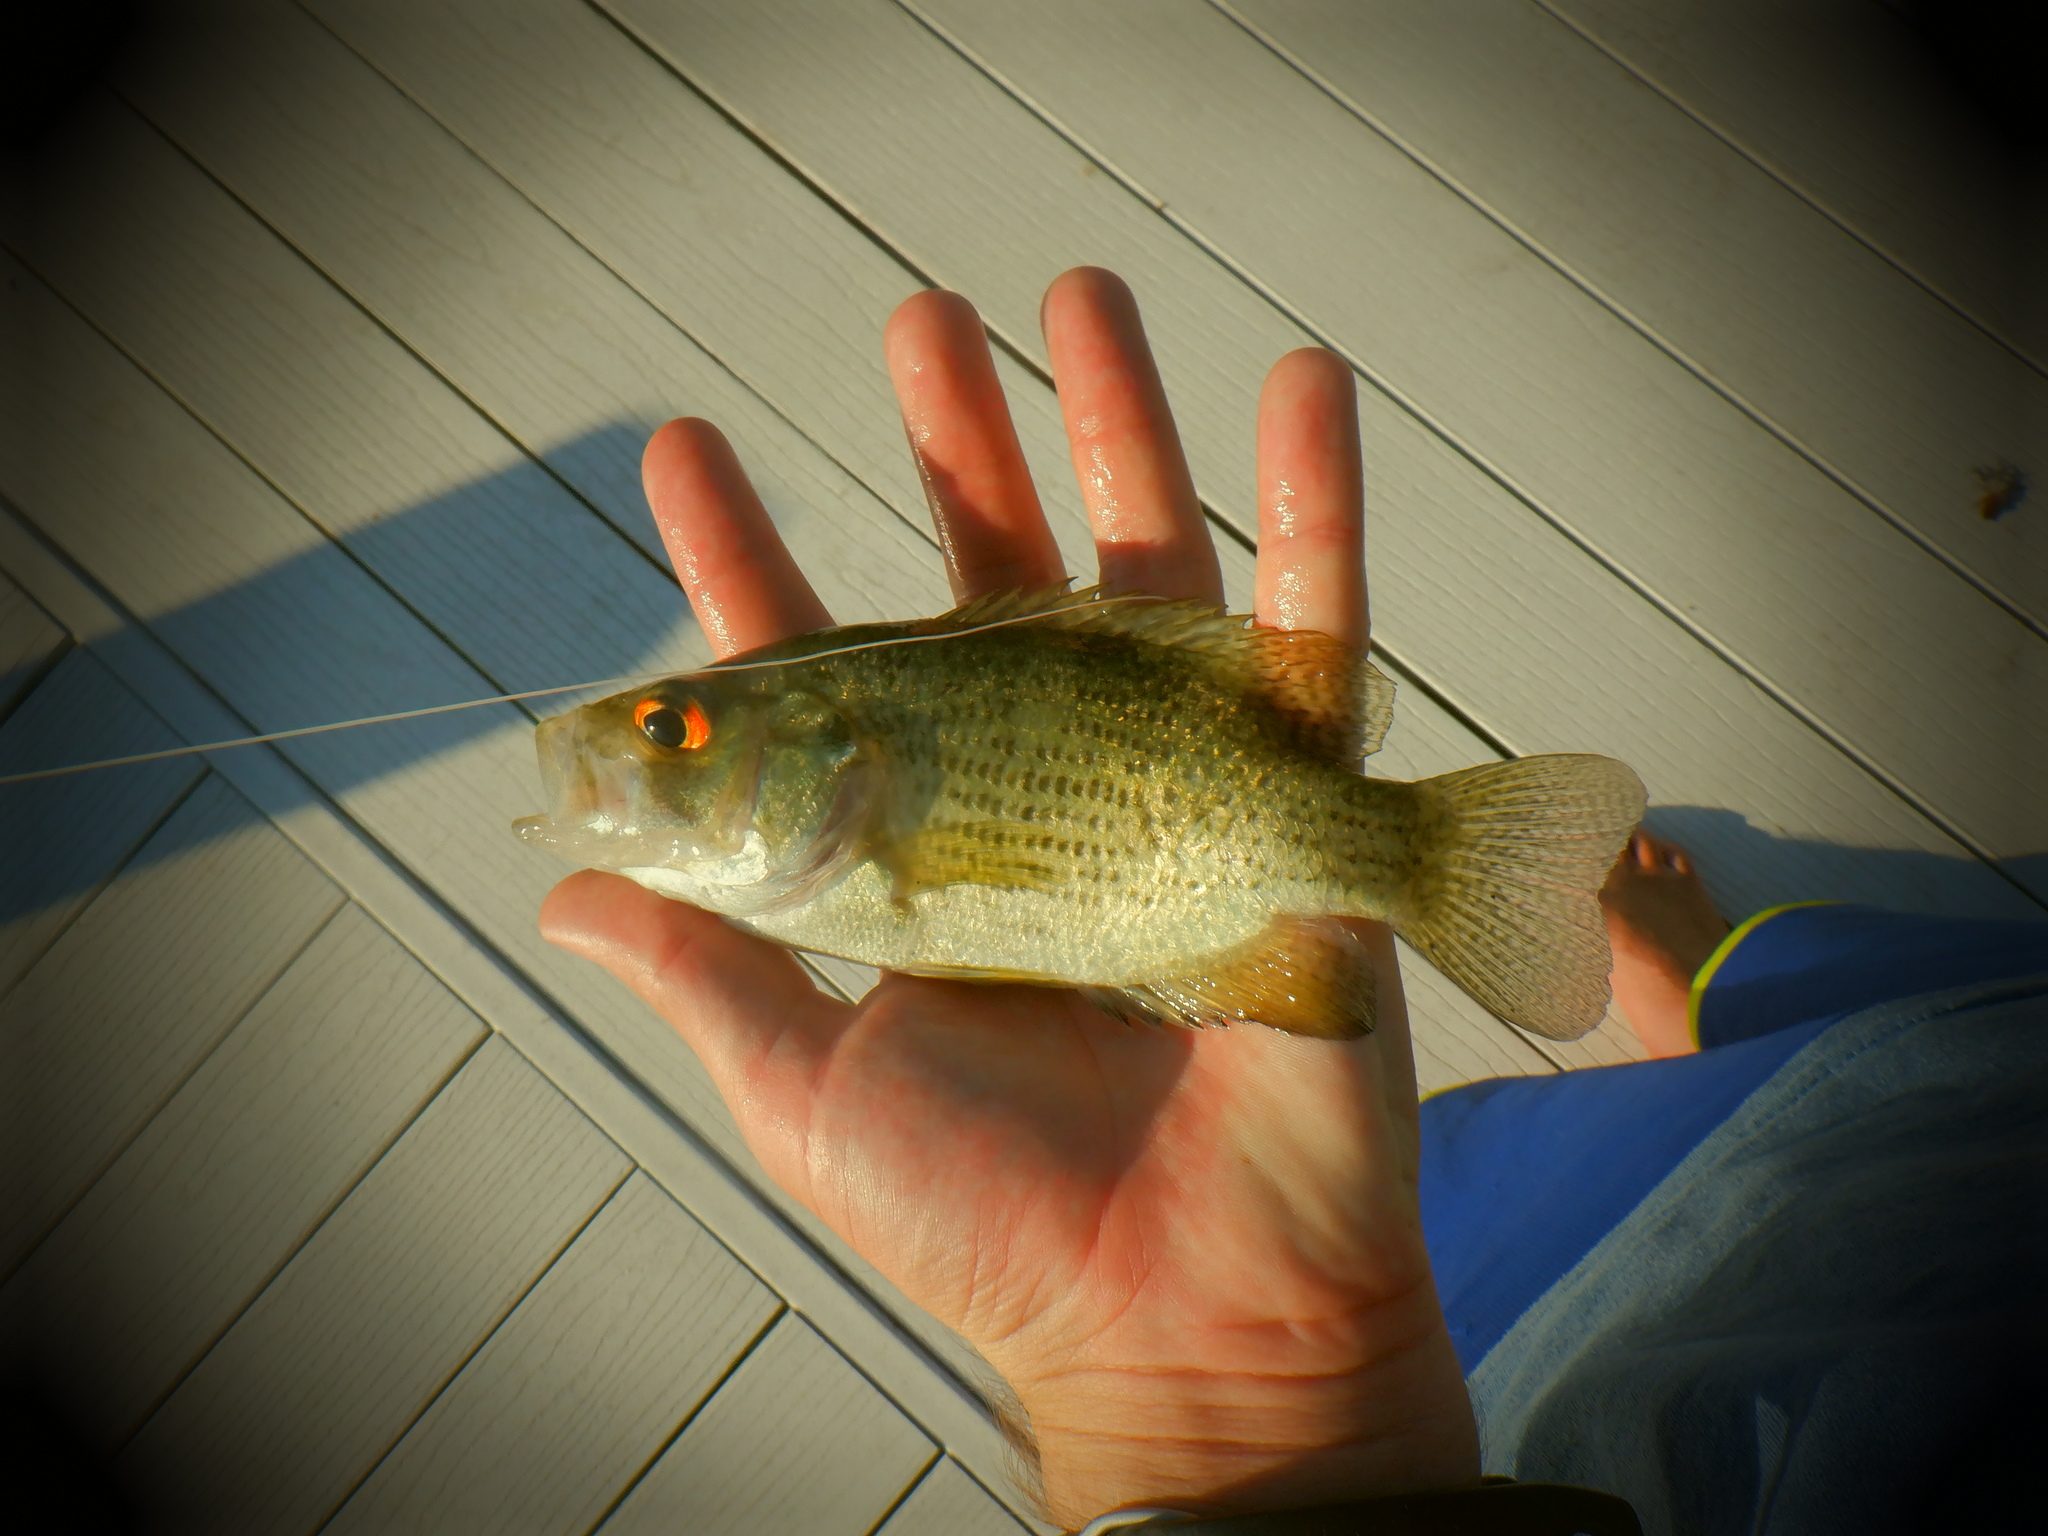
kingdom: Animalia
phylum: Chordata
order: Perciformes
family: Centrarchidae
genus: Ambloplites
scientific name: Ambloplites rupestris
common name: Rock bass
